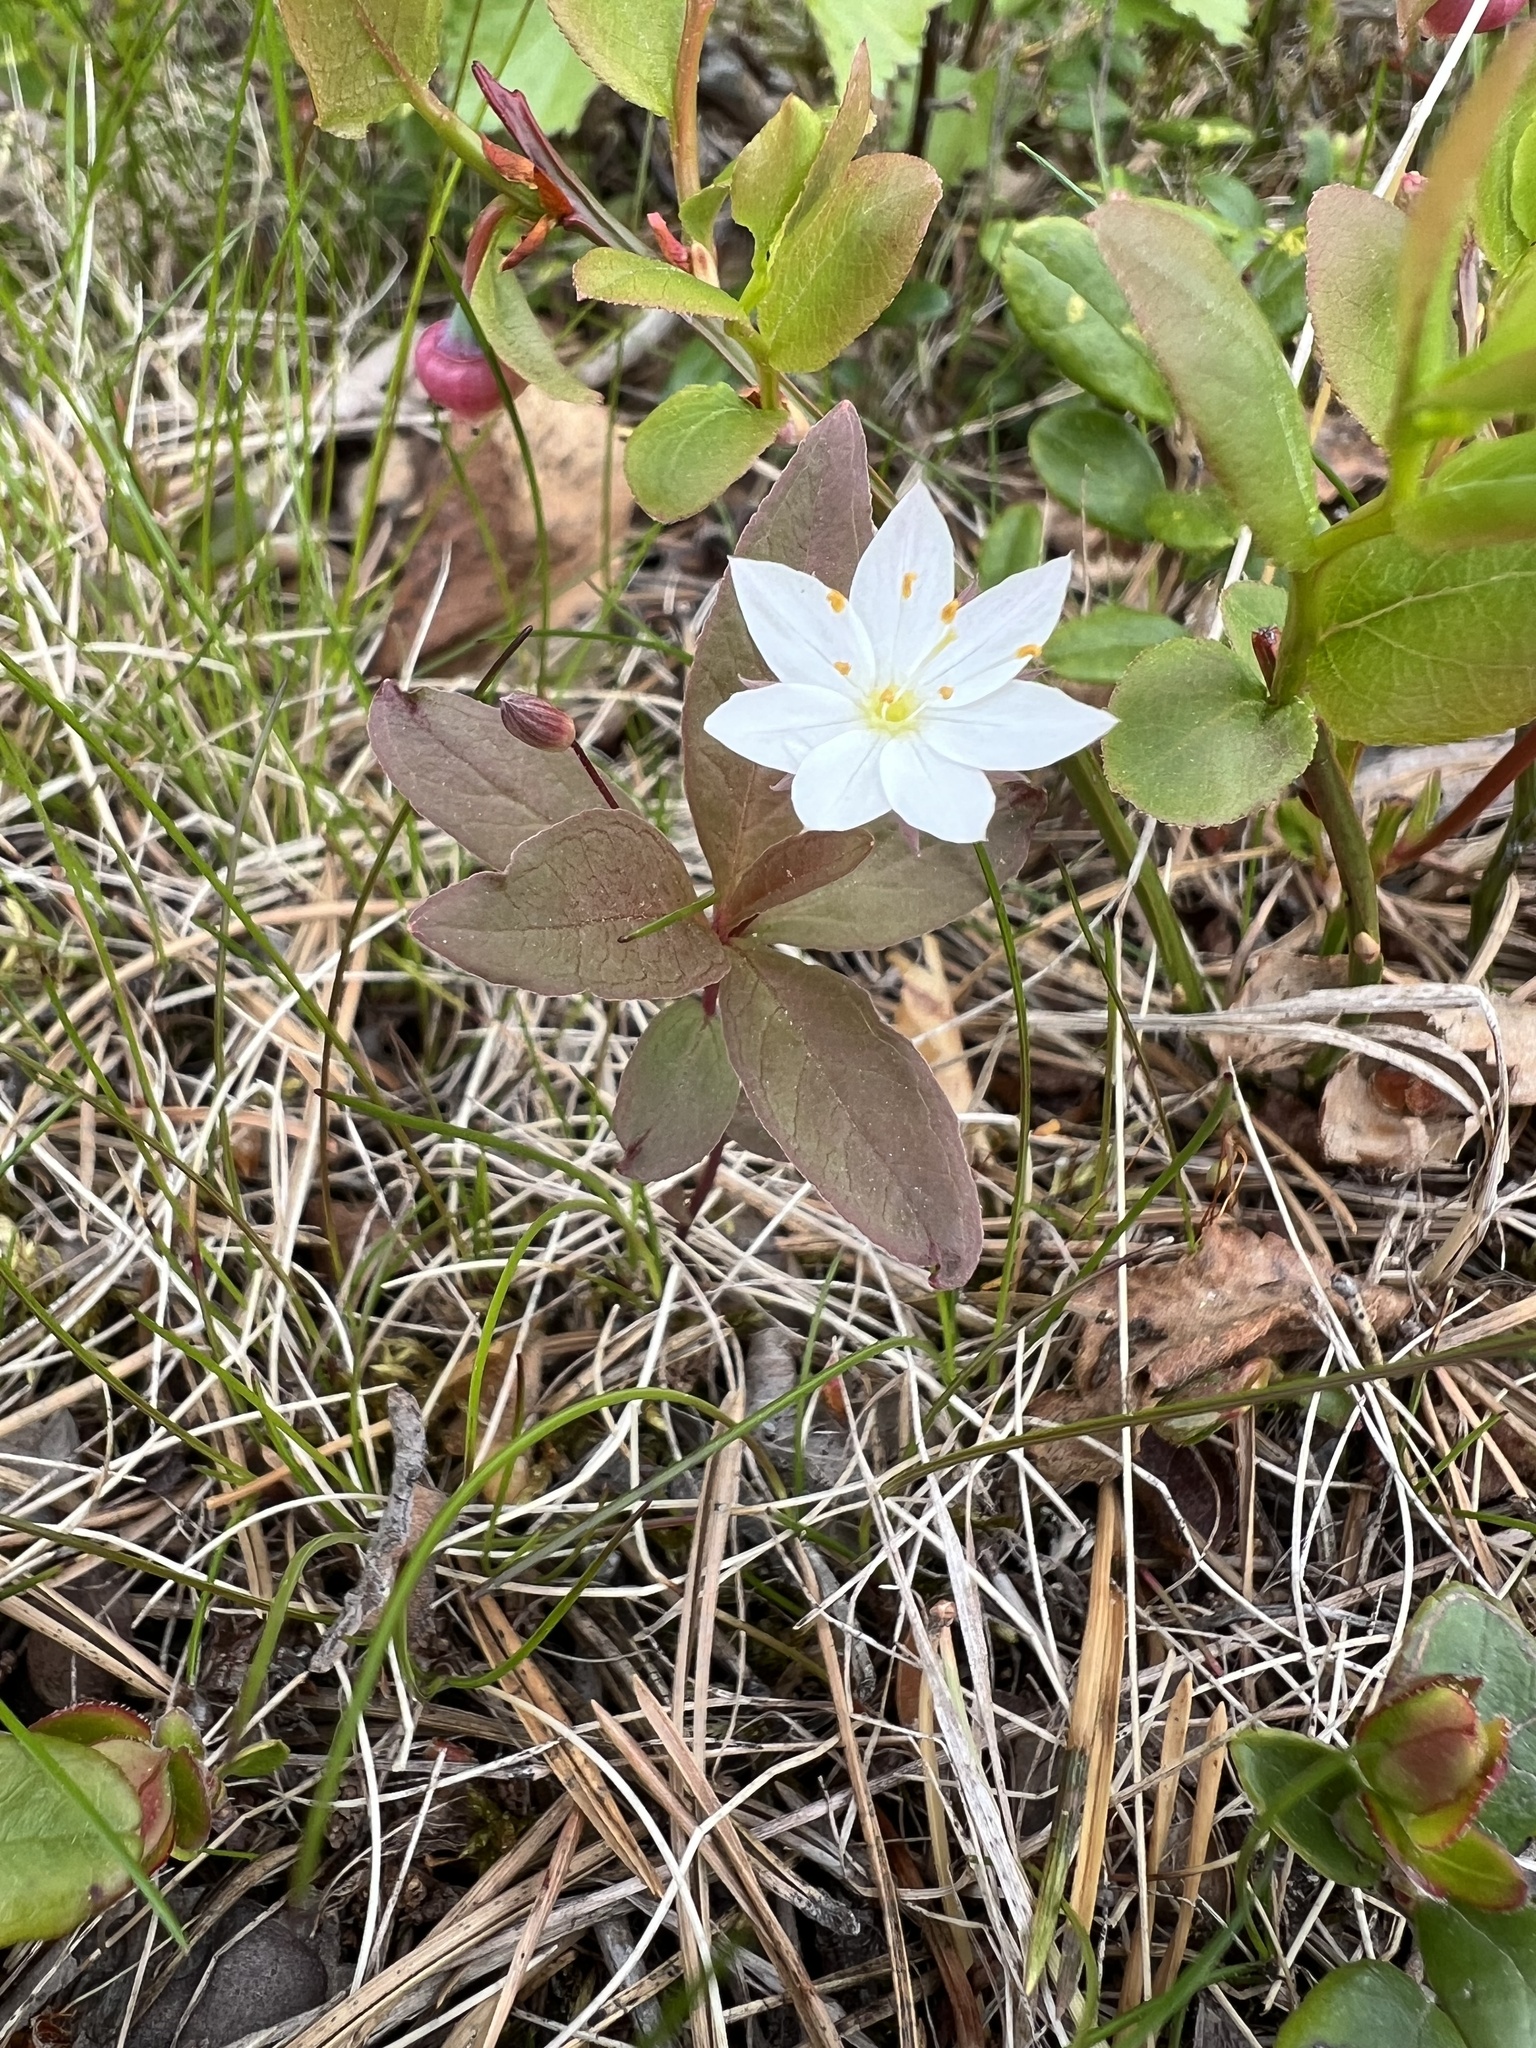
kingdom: Plantae
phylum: Tracheophyta
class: Magnoliopsida
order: Ericales
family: Primulaceae
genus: Lysimachia
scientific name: Lysimachia europaea
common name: Arctic starflower
